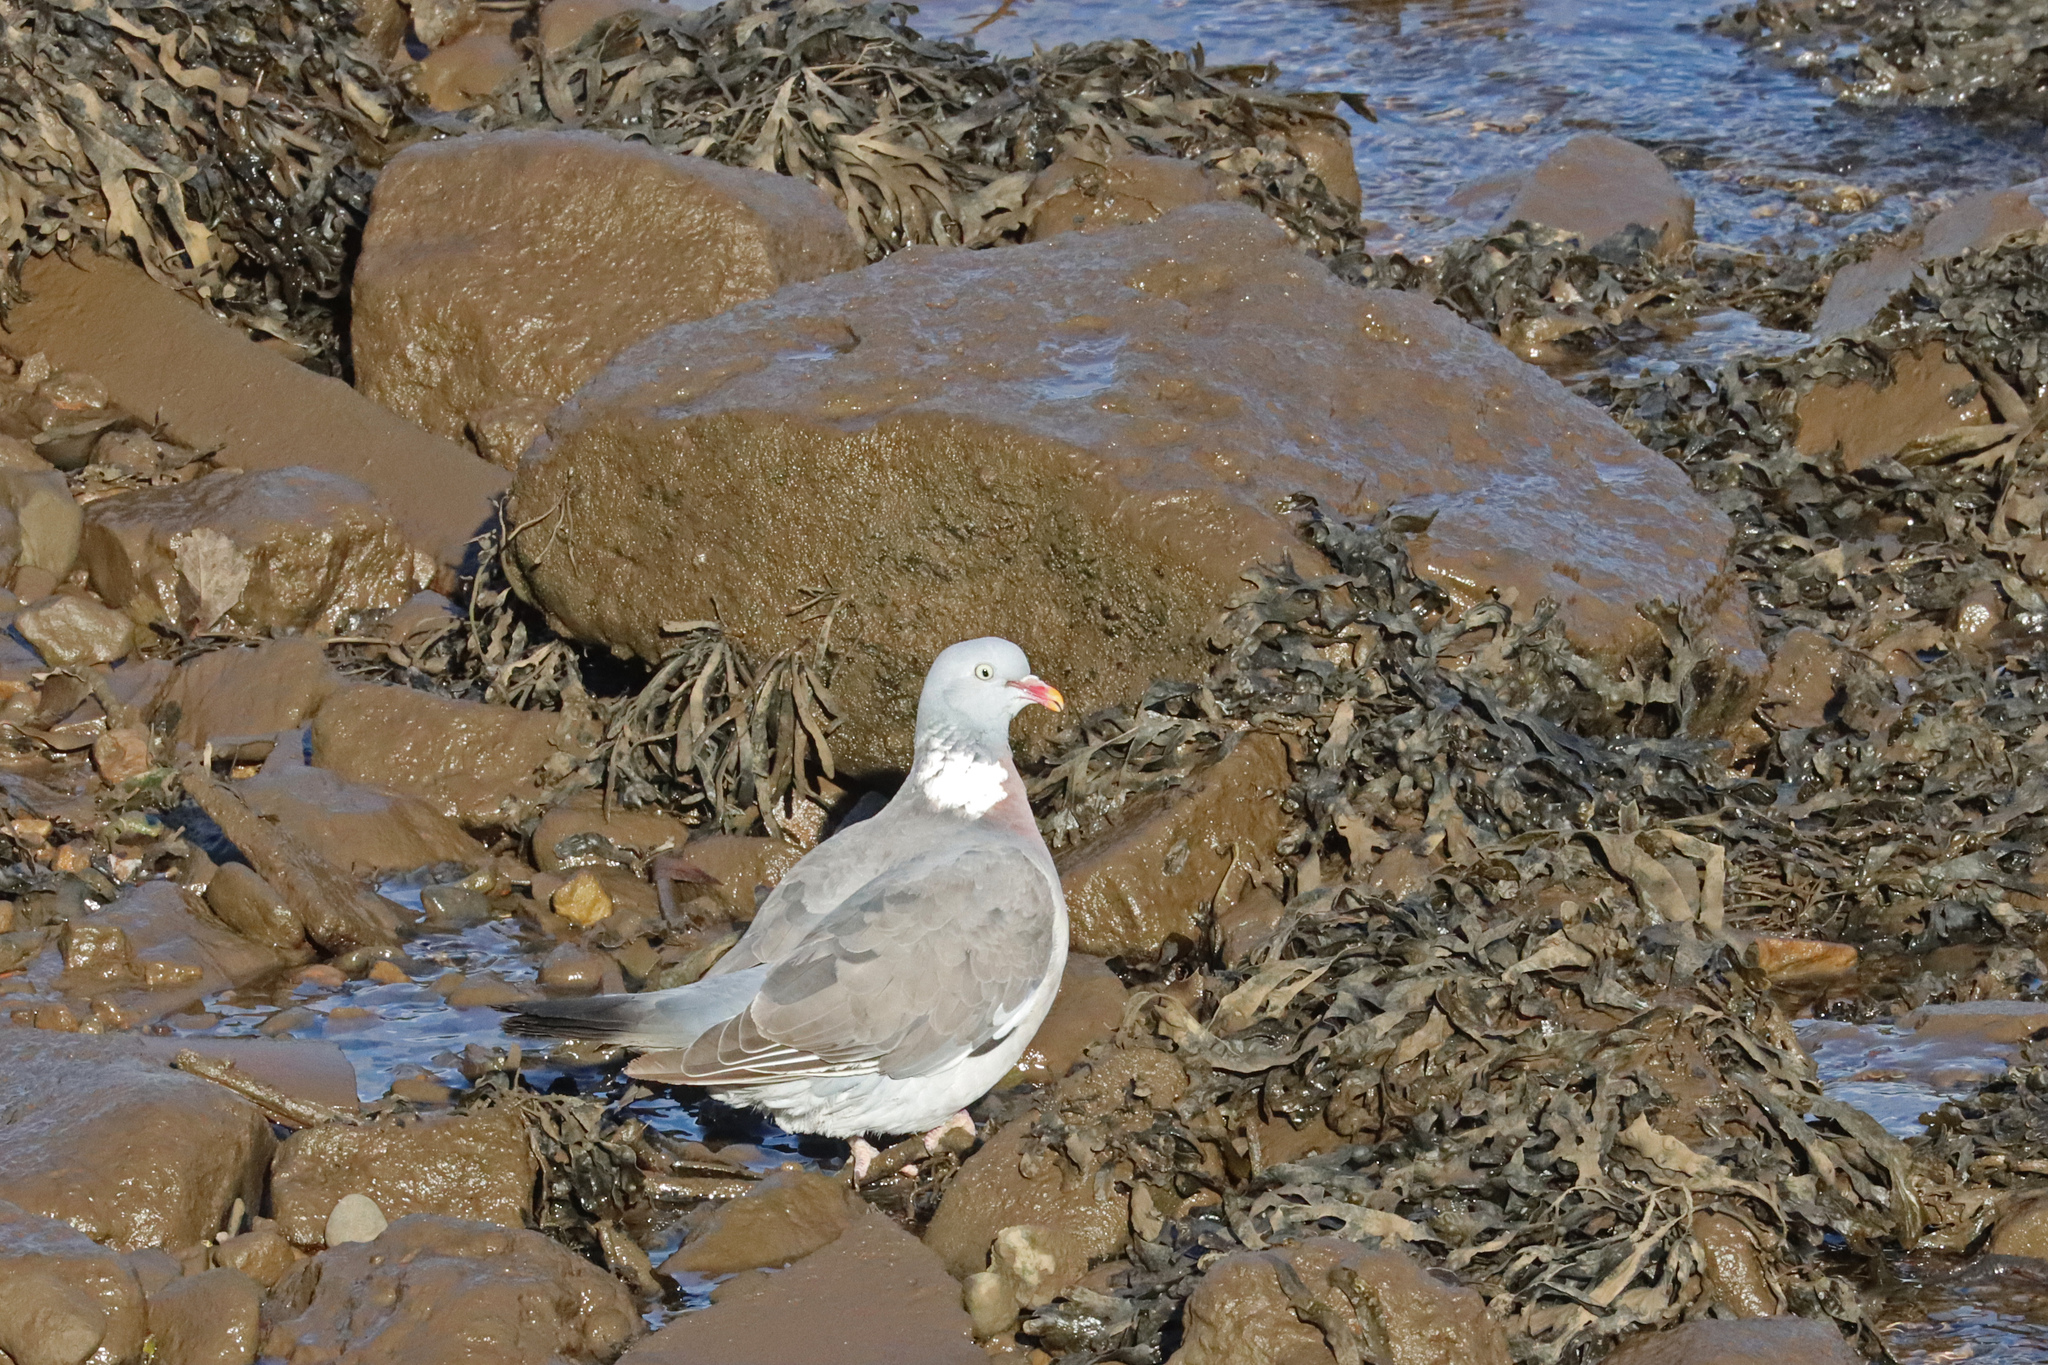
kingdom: Animalia
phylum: Chordata
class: Aves
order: Columbiformes
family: Columbidae
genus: Columba
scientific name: Columba palumbus
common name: Common wood pigeon
